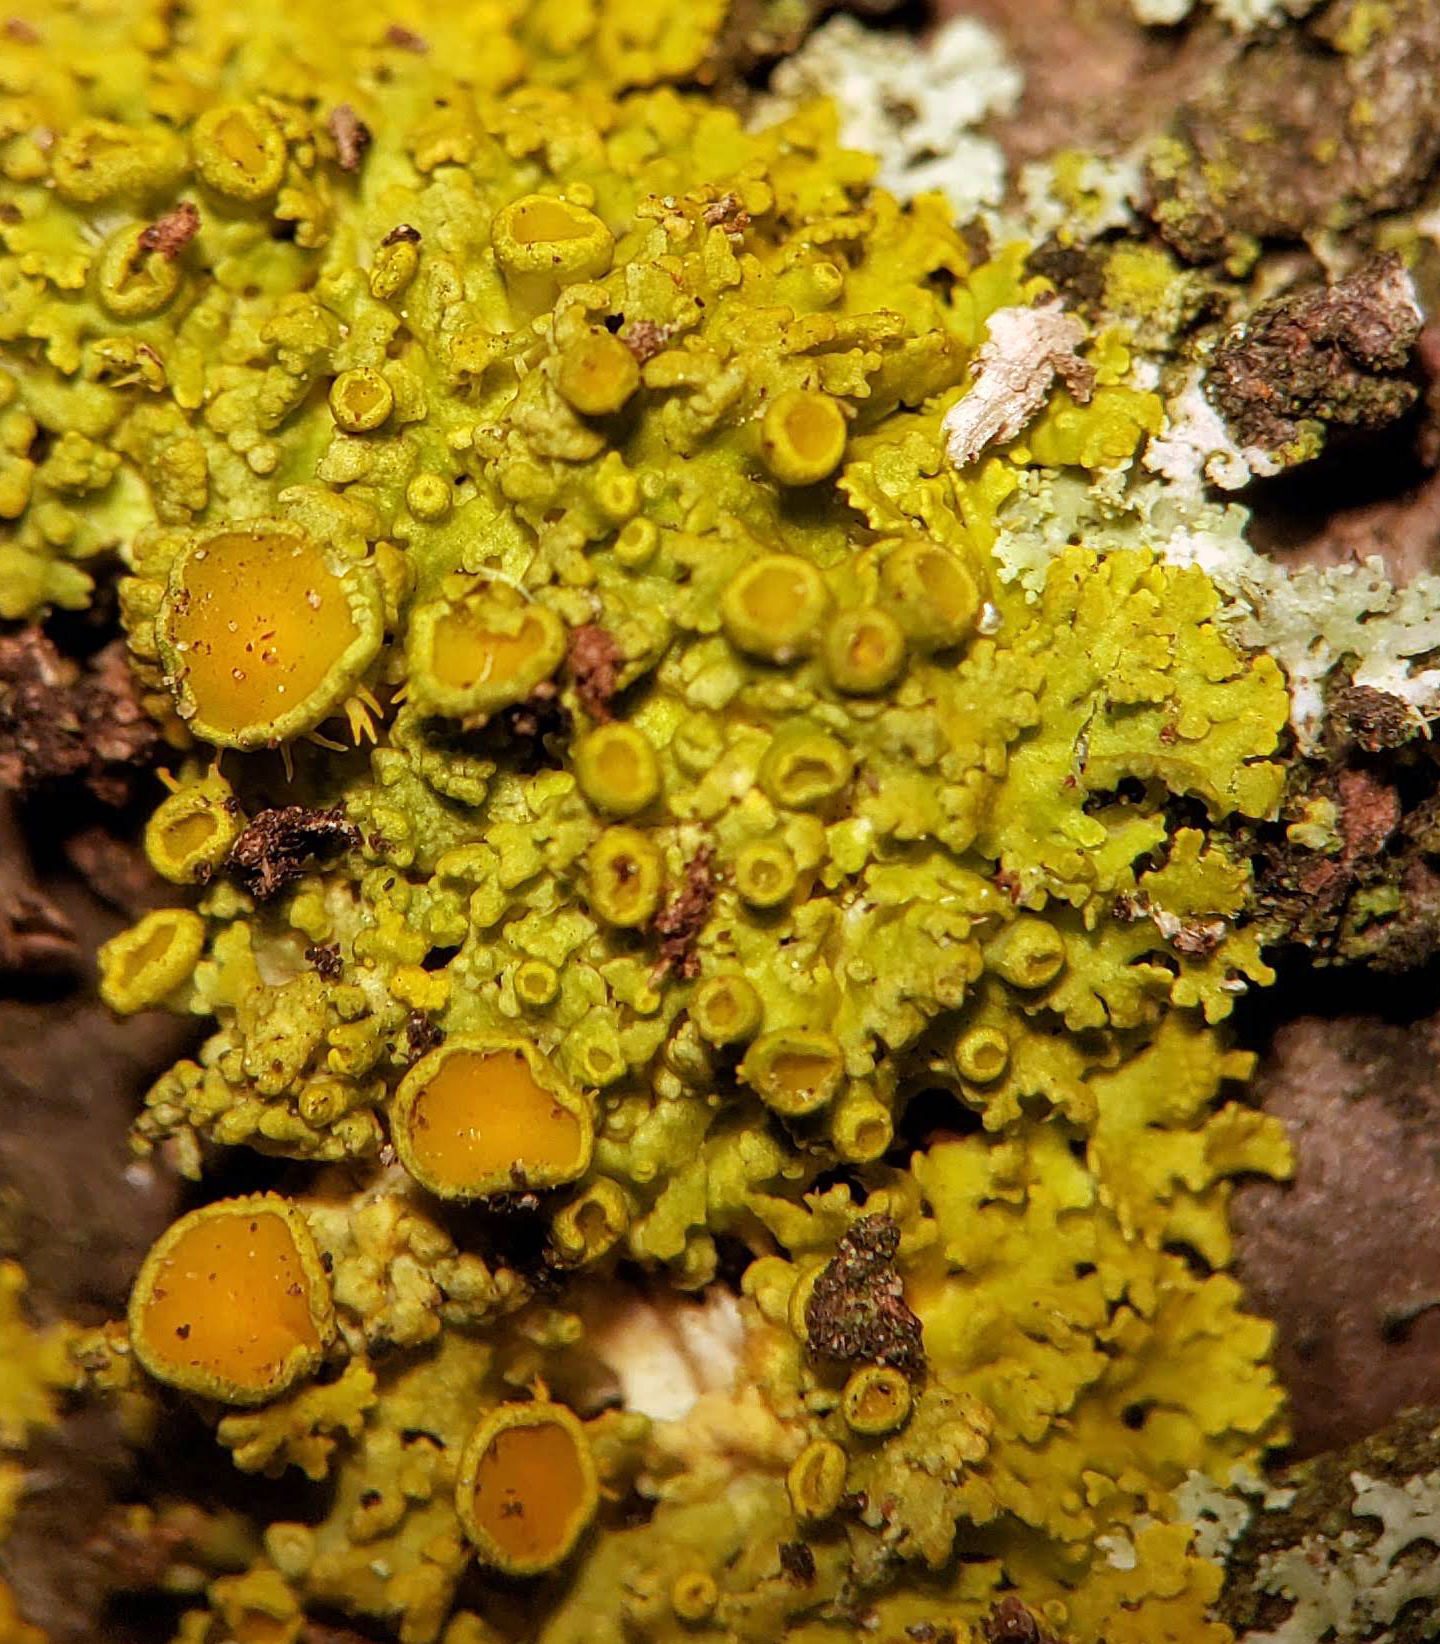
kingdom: Fungi
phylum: Ascomycota
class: Lecanoromycetes
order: Teloschistales
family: Teloschistaceae
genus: Gallowayella
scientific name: Gallowayella hasseana
